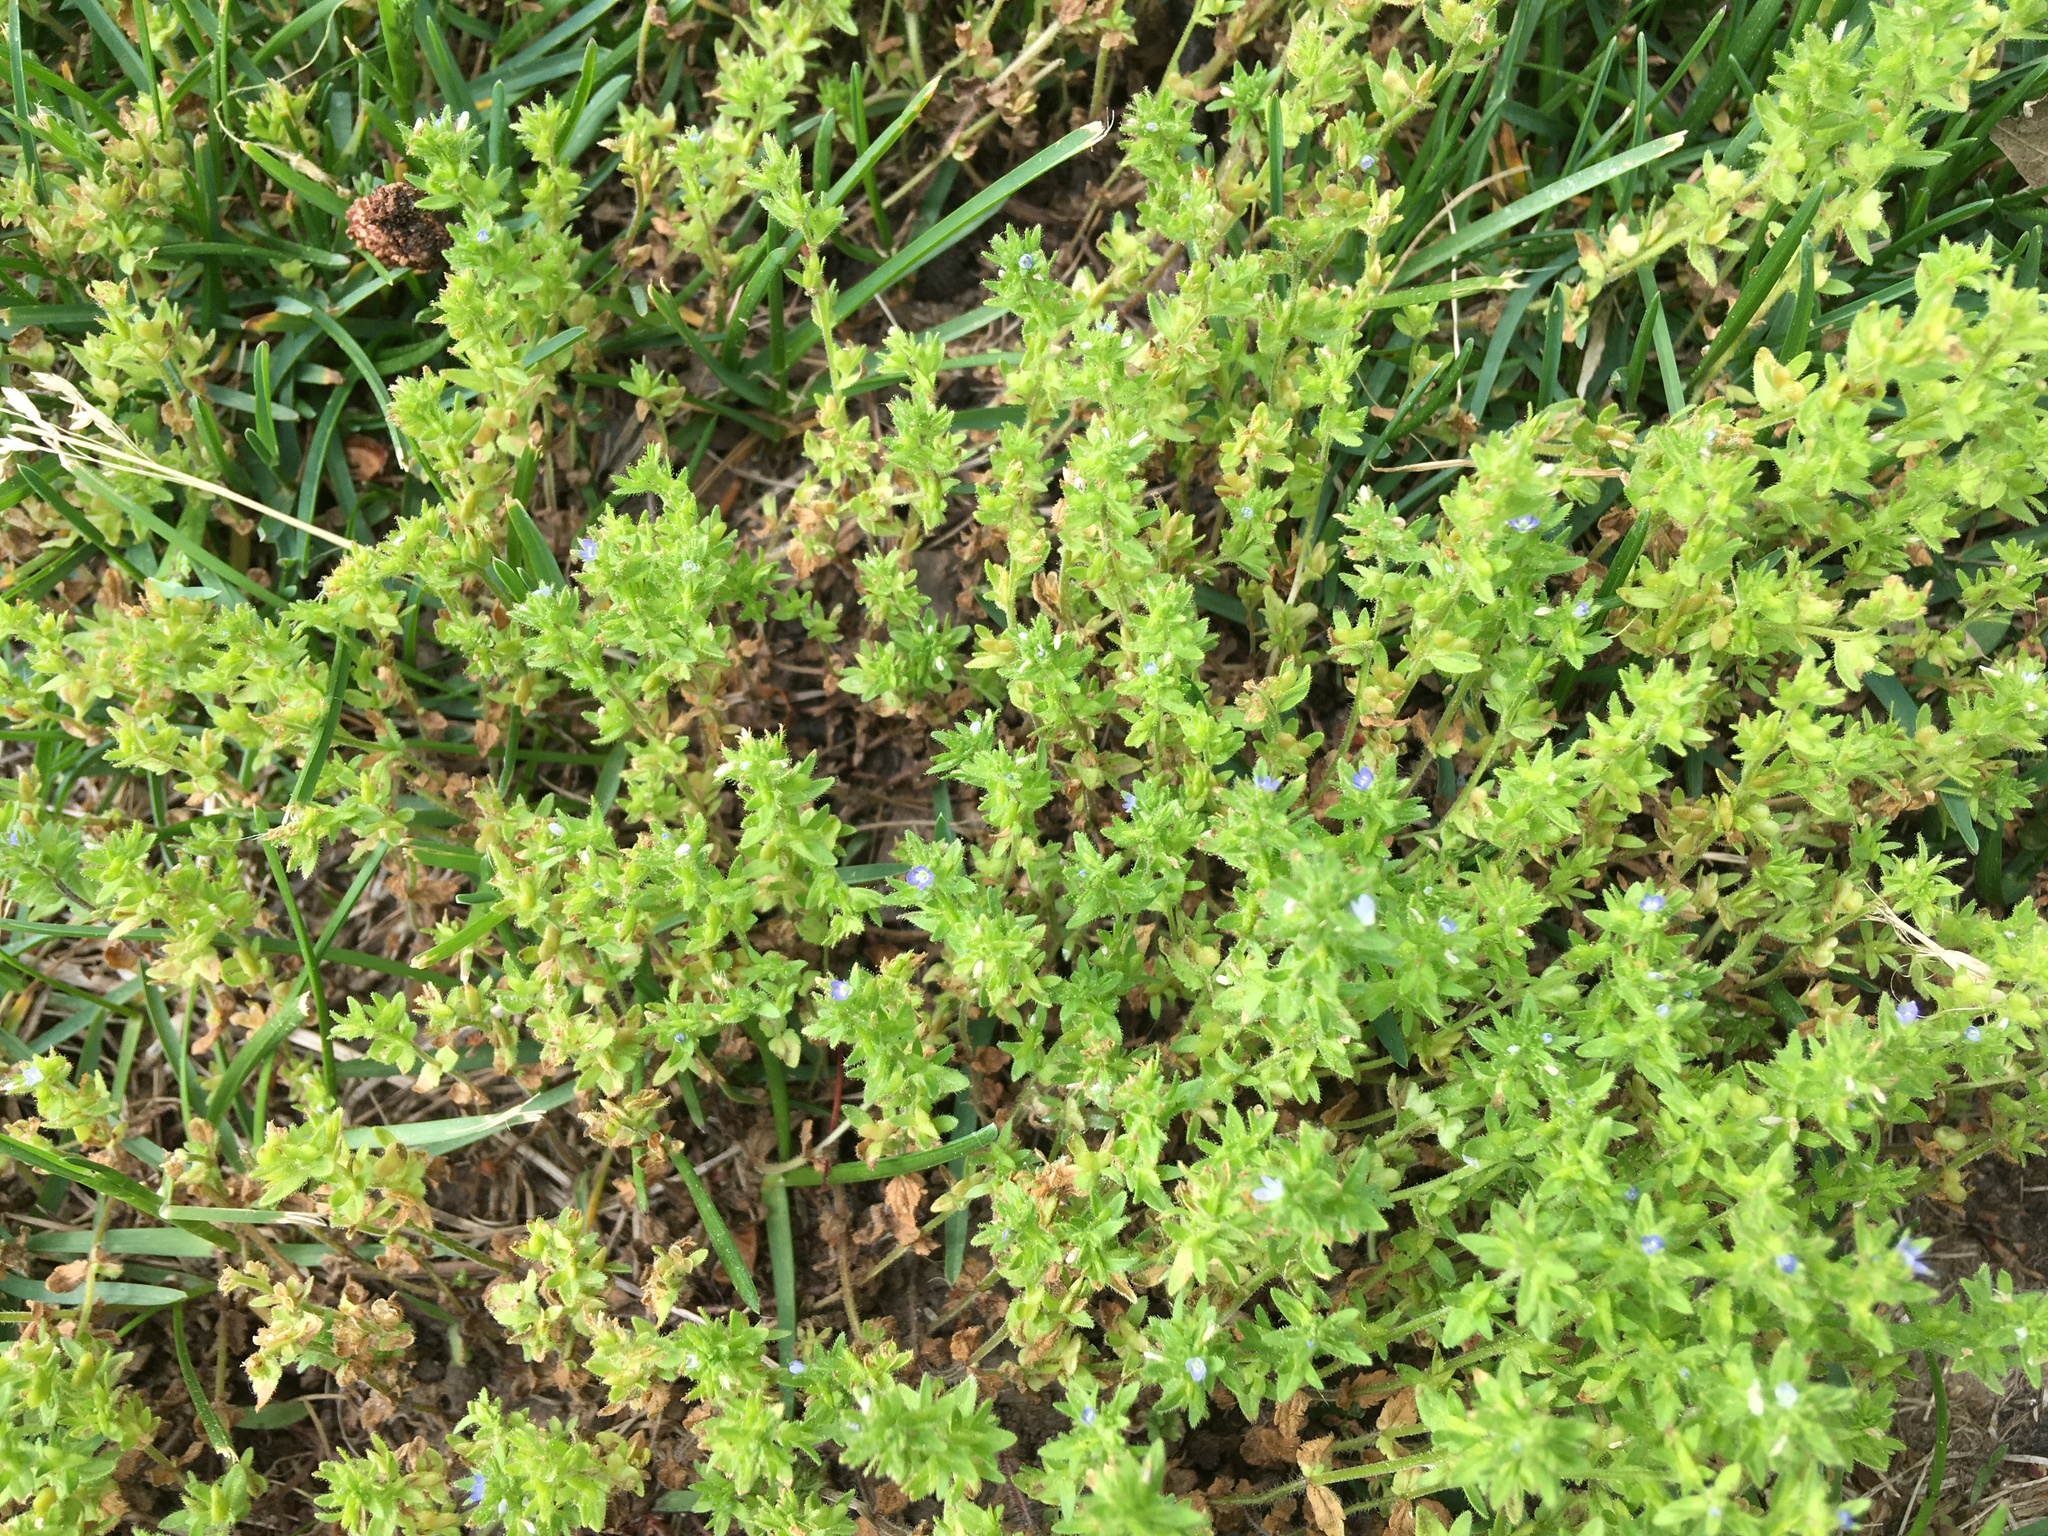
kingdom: Plantae
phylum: Tracheophyta
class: Magnoliopsida
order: Lamiales
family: Plantaginaceae
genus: Veronica
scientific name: Veronica arvensis
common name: Corn speedwell
